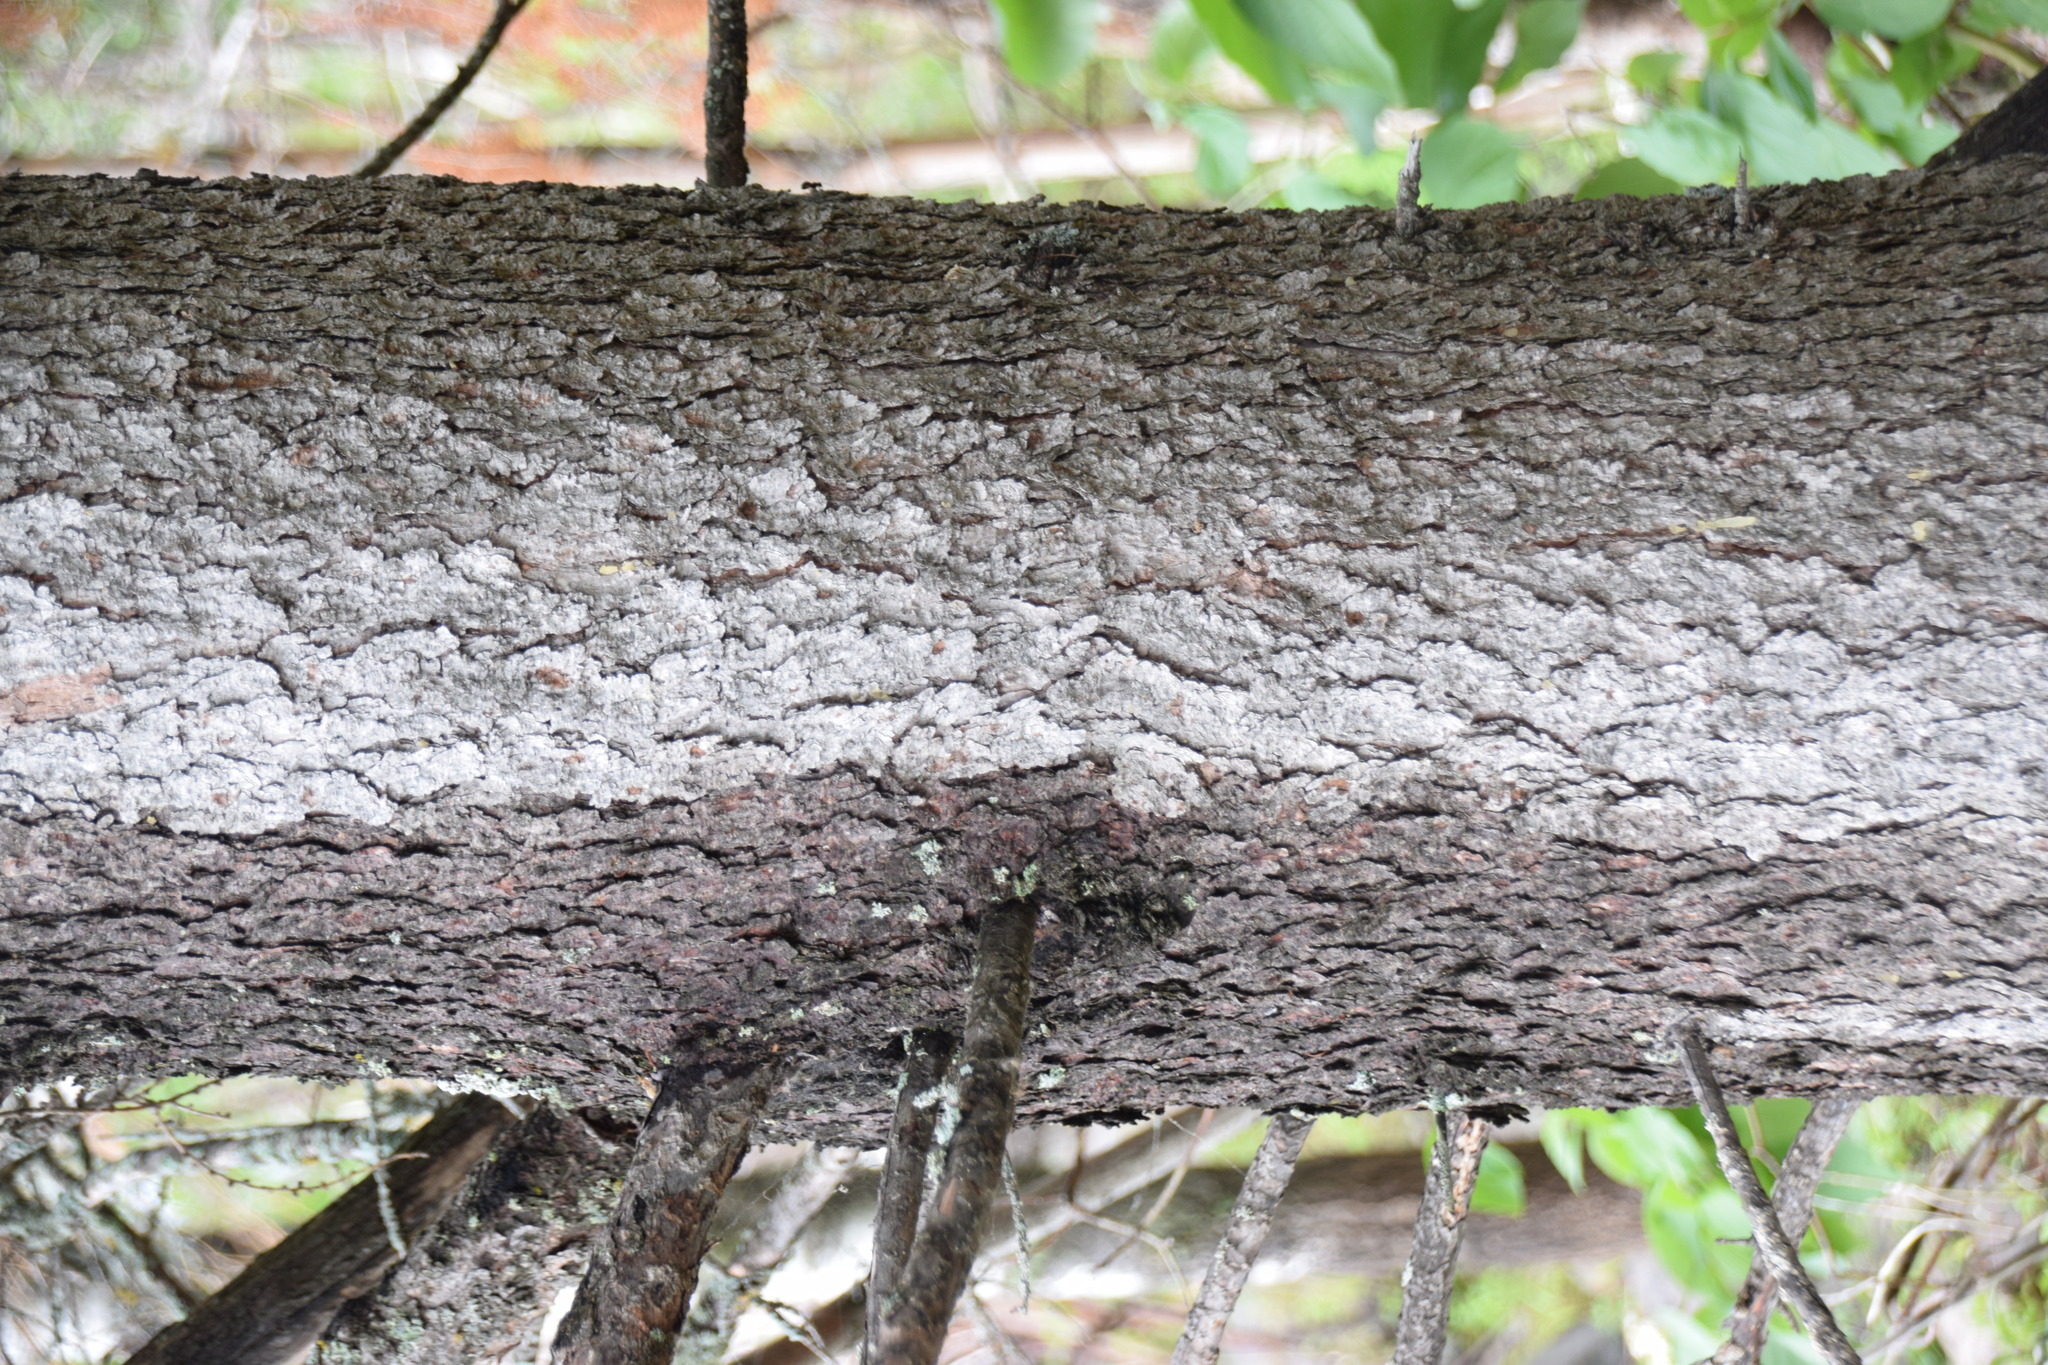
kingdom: Plantae
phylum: Tracheophyta
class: Pinopsida
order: Pinales
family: Pinaceae
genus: Larix
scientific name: Larix laricina
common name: American larch
